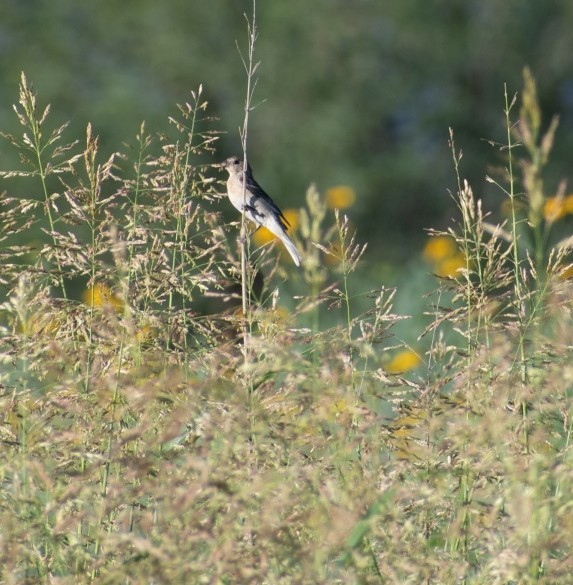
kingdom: Animalia
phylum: Chordata
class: Aves
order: Passeriformes
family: Cardinalidae
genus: Passerina
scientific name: Passerina amoena
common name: Lazuli bunting
